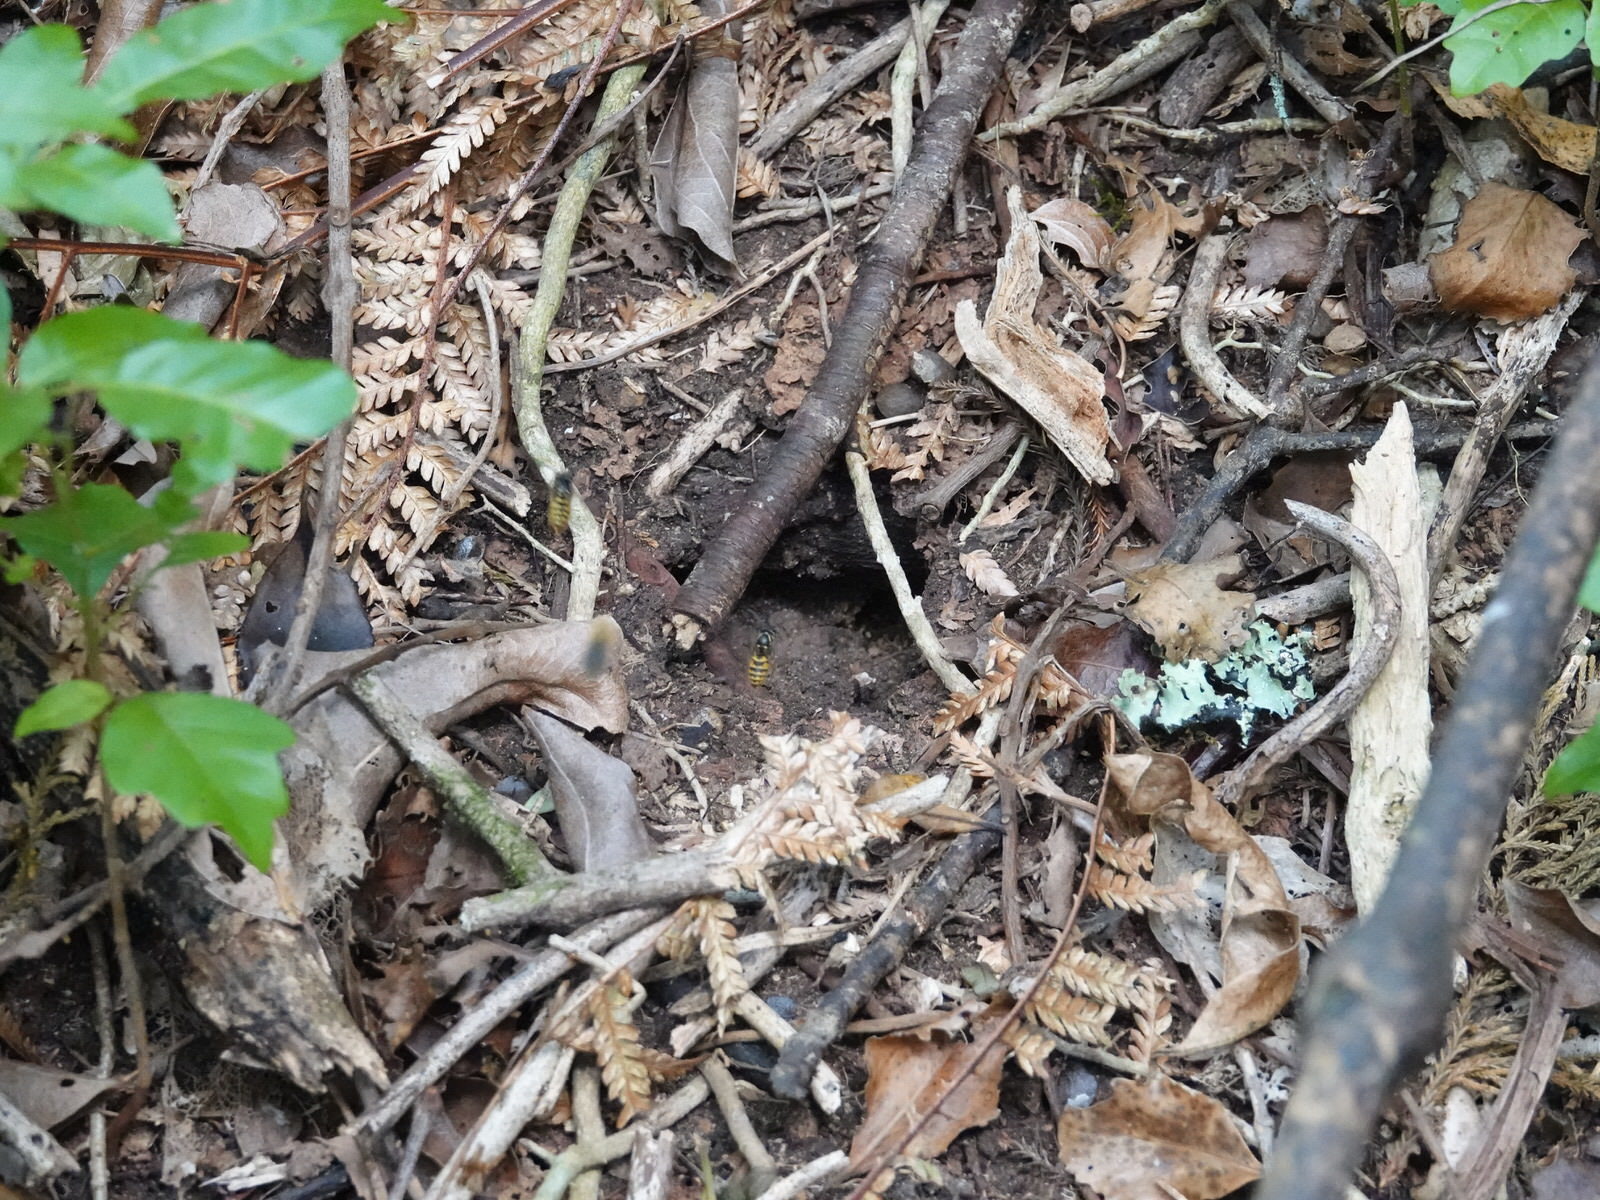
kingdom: Animalia
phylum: Arthropoda
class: Insecta
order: Hymenoptera
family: Vespidae
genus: Vespula
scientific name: Vespula vulgaris
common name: Common wasp
